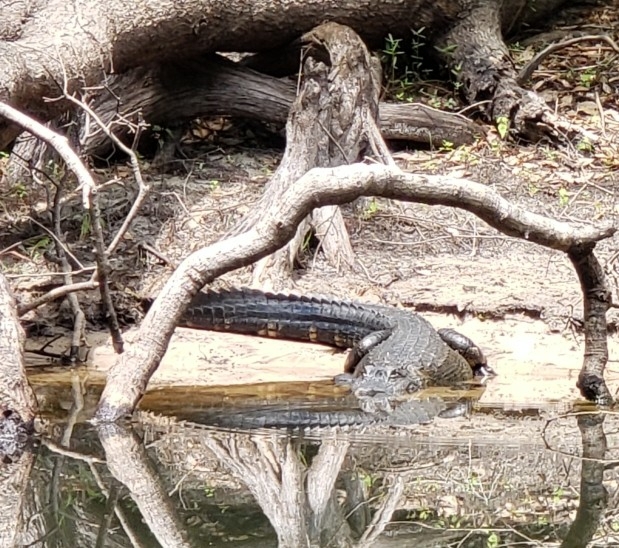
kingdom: Animalia
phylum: Chordata
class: Crocodylia
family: Alligatoridae
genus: Alligator
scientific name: Alligator mississippiensis
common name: American alligator
